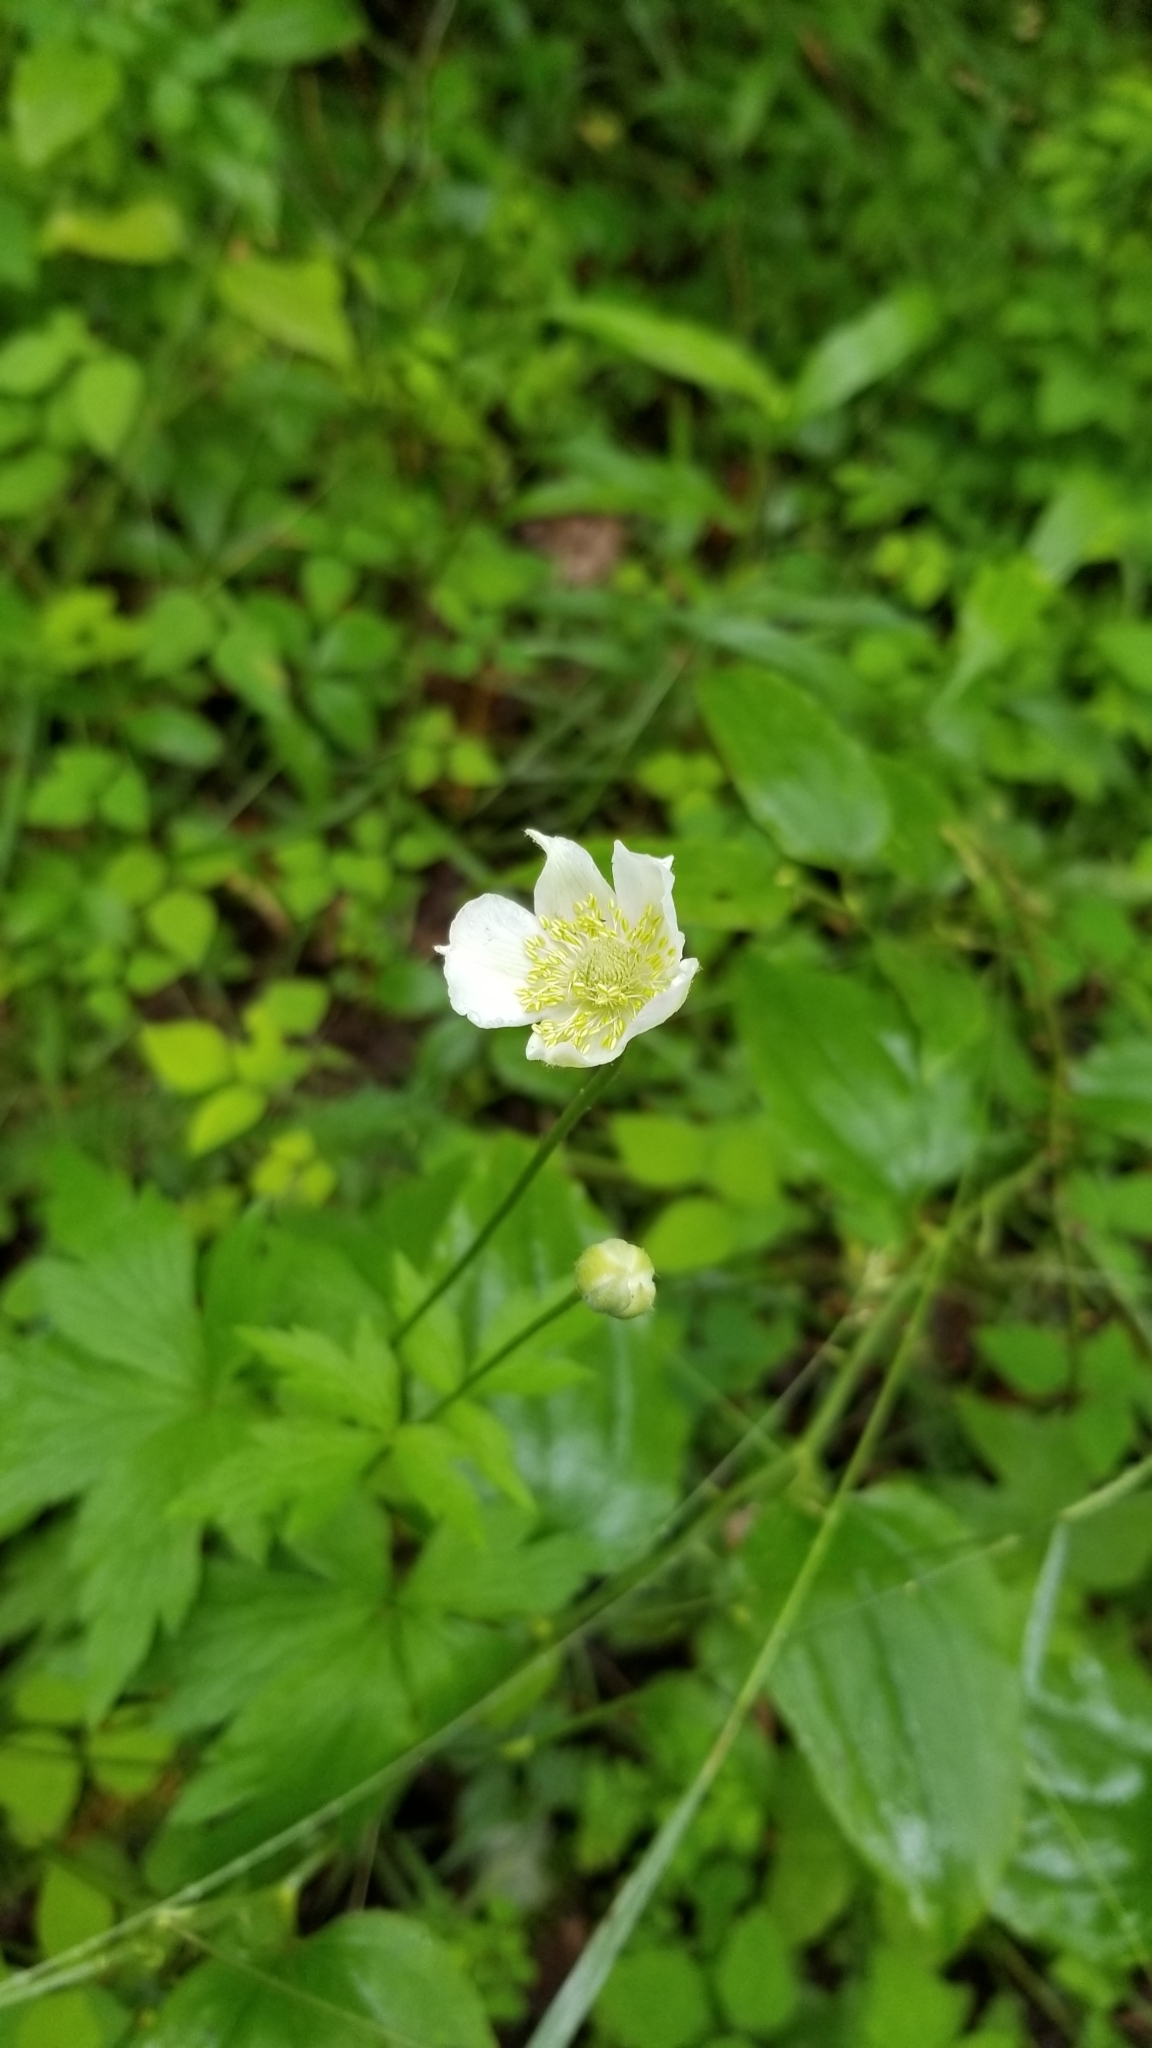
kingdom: Plantae
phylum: Tracheophyta
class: Magnoliopsida
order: Ranunculales
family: Ranunculaceae
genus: Anemone
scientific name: Anemone virginiana
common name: Tall anemone
